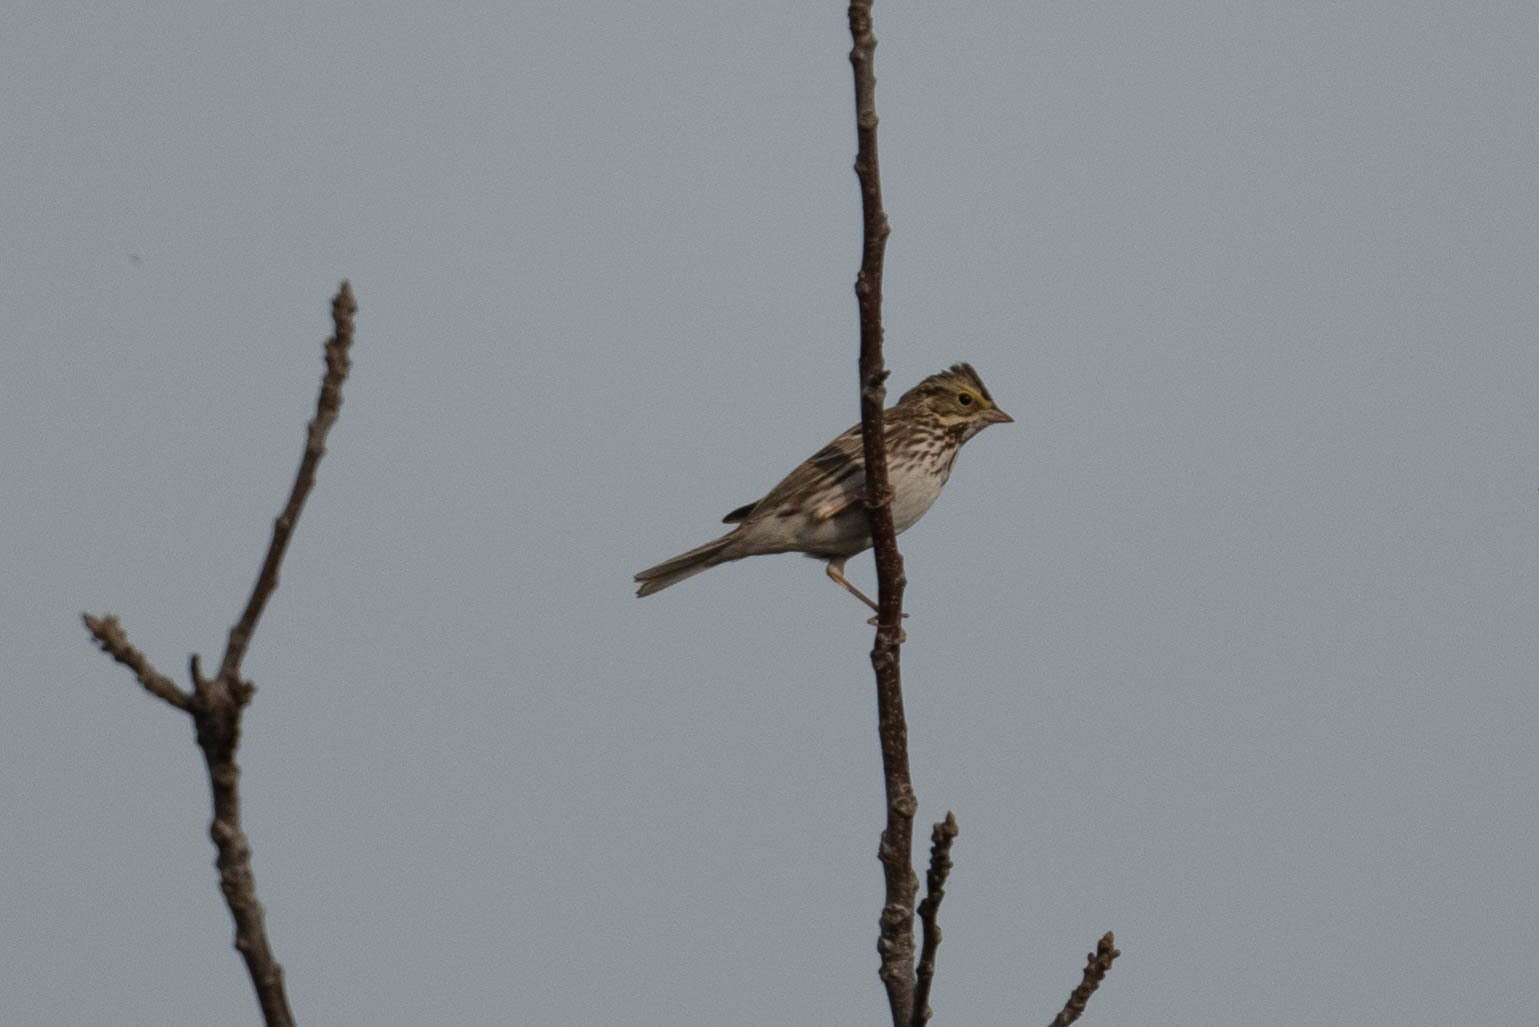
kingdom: Animalia
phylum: Chordata
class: Aves
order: Passeriformes
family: Passerellidae
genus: Passerculus
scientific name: Passerculus sandwichensis
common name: Savannah sparrow
